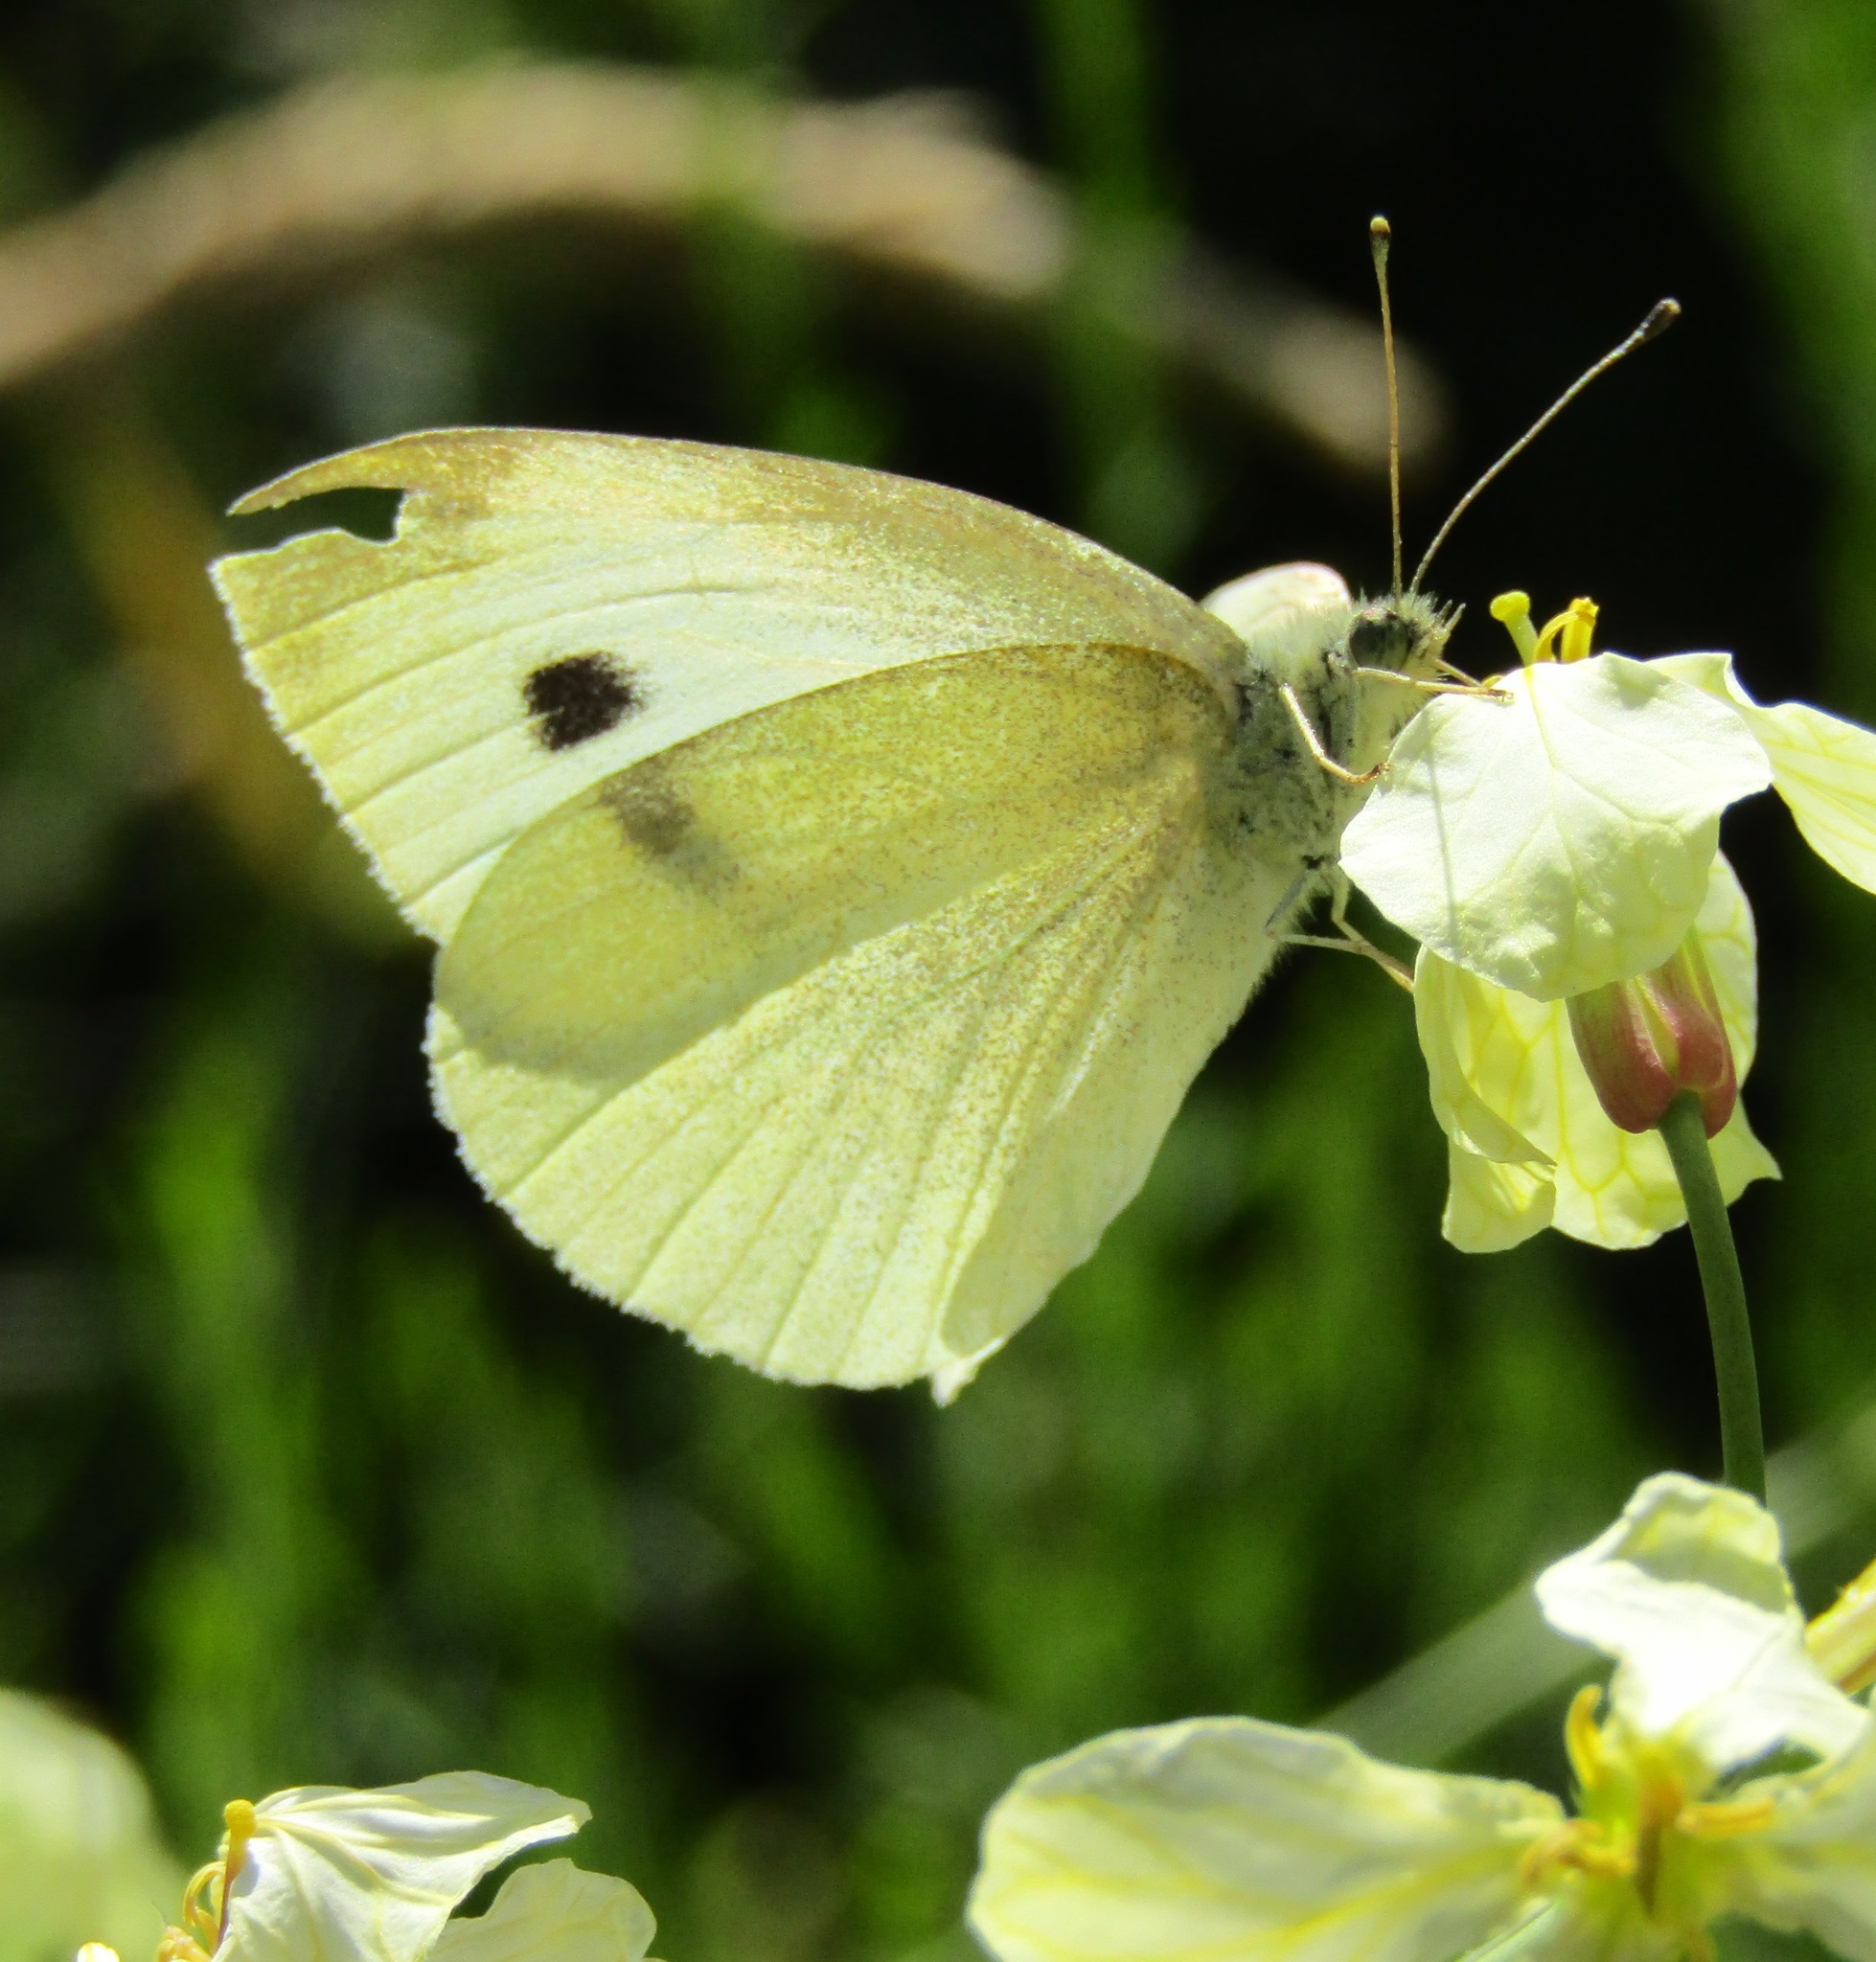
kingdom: Animalia
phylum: Arthropoda
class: Insecta
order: Lepidoptera
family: Pieridae
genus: Pieris
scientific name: Pieris rapae
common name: Small white
